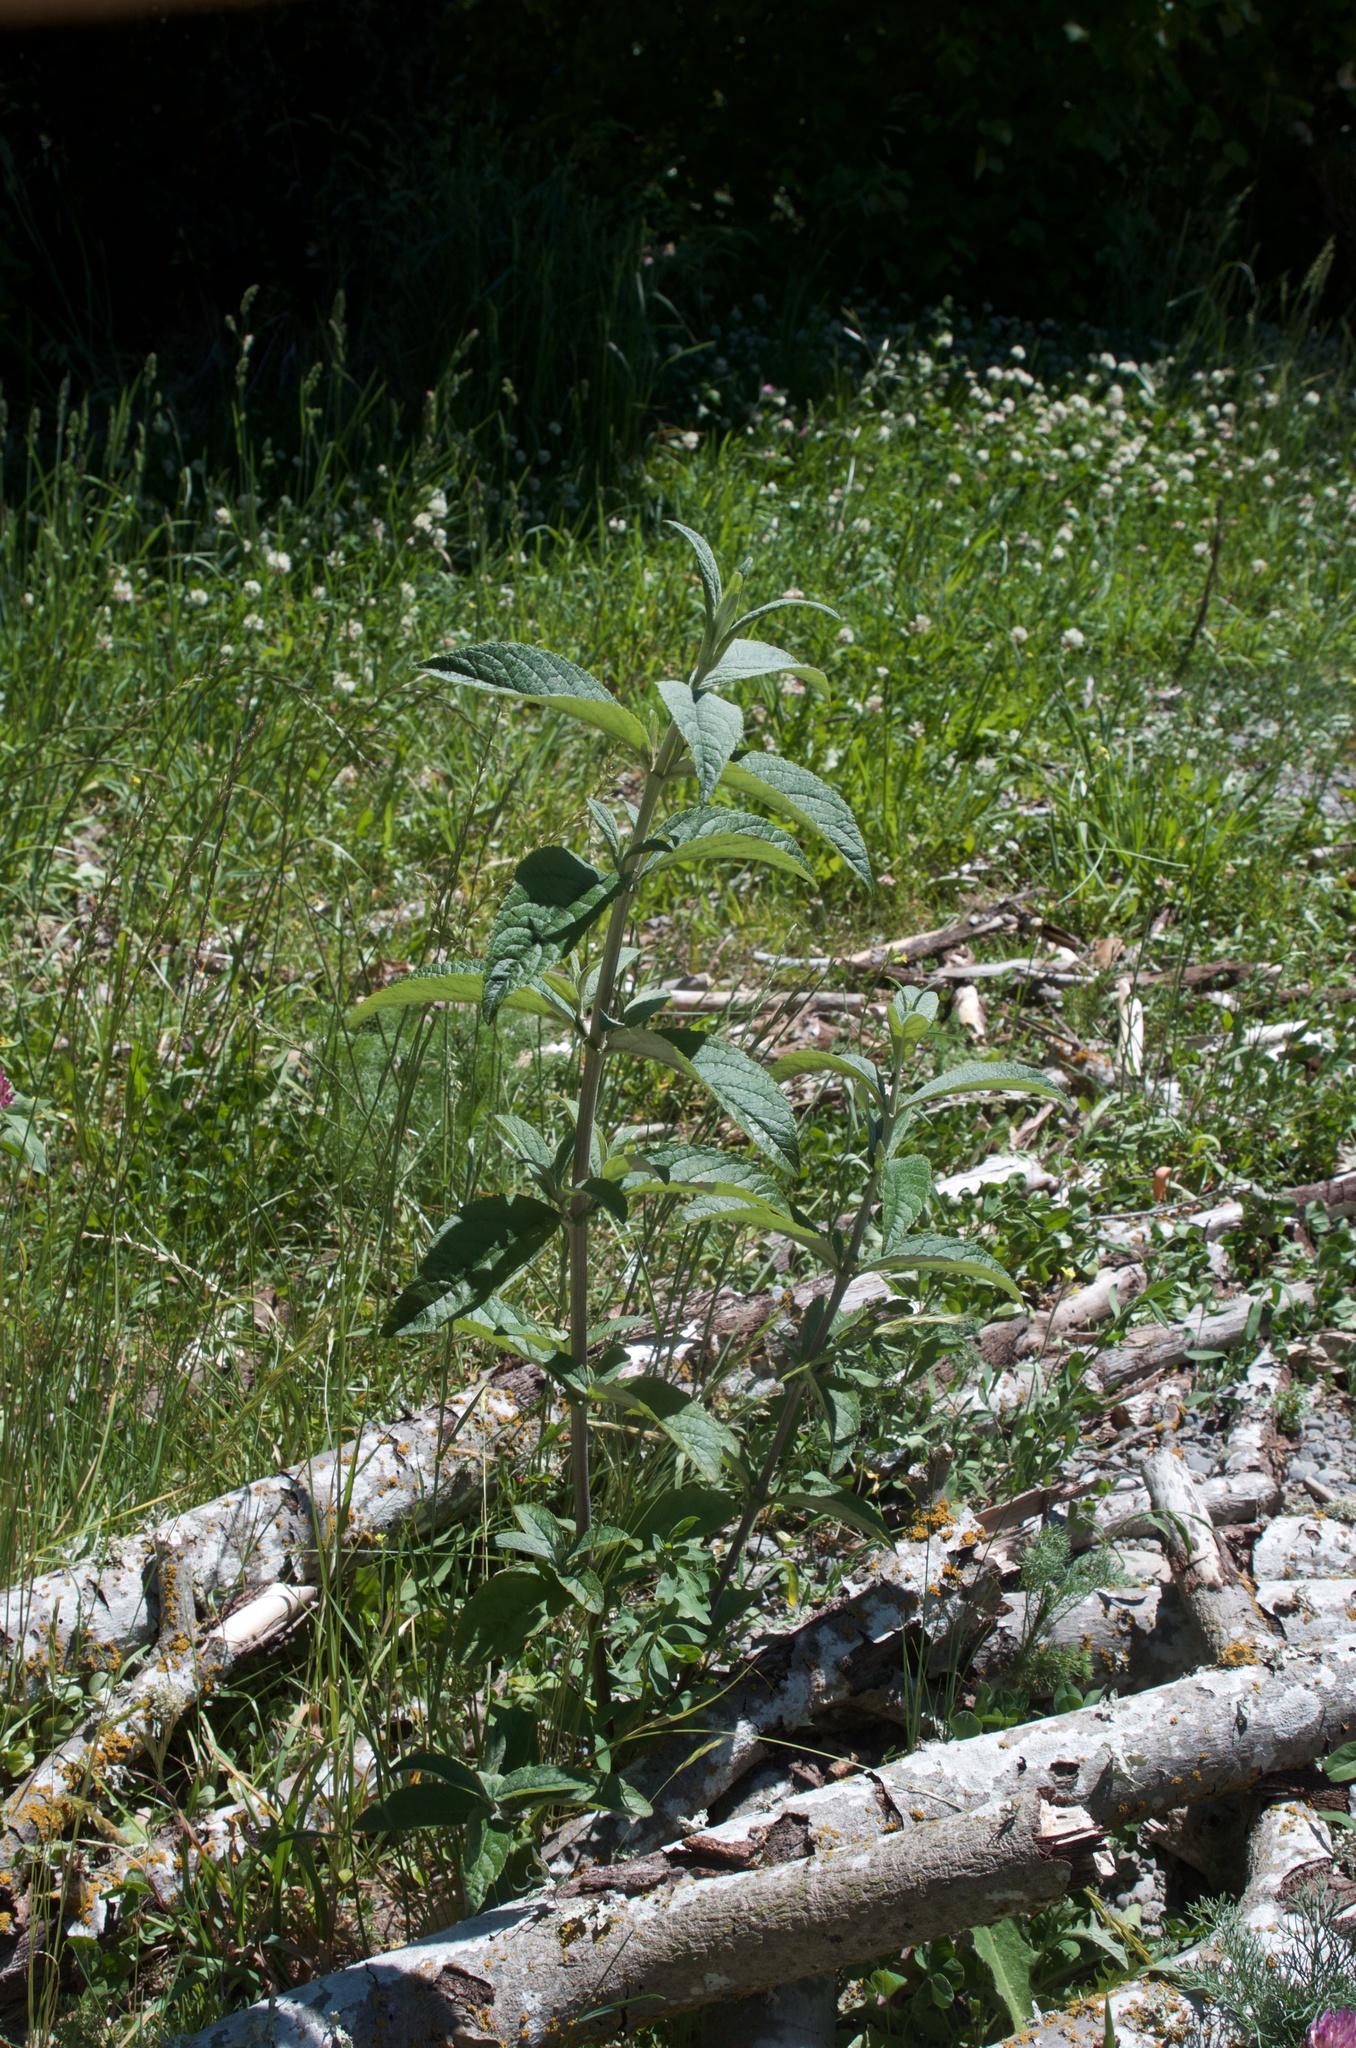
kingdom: Plantae
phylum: Tracheophyta
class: Magnoliopsida
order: Lamiales
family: Scrophulariaceae
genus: Buddleja
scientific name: Buddleja davidii
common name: Butterfly-bush
